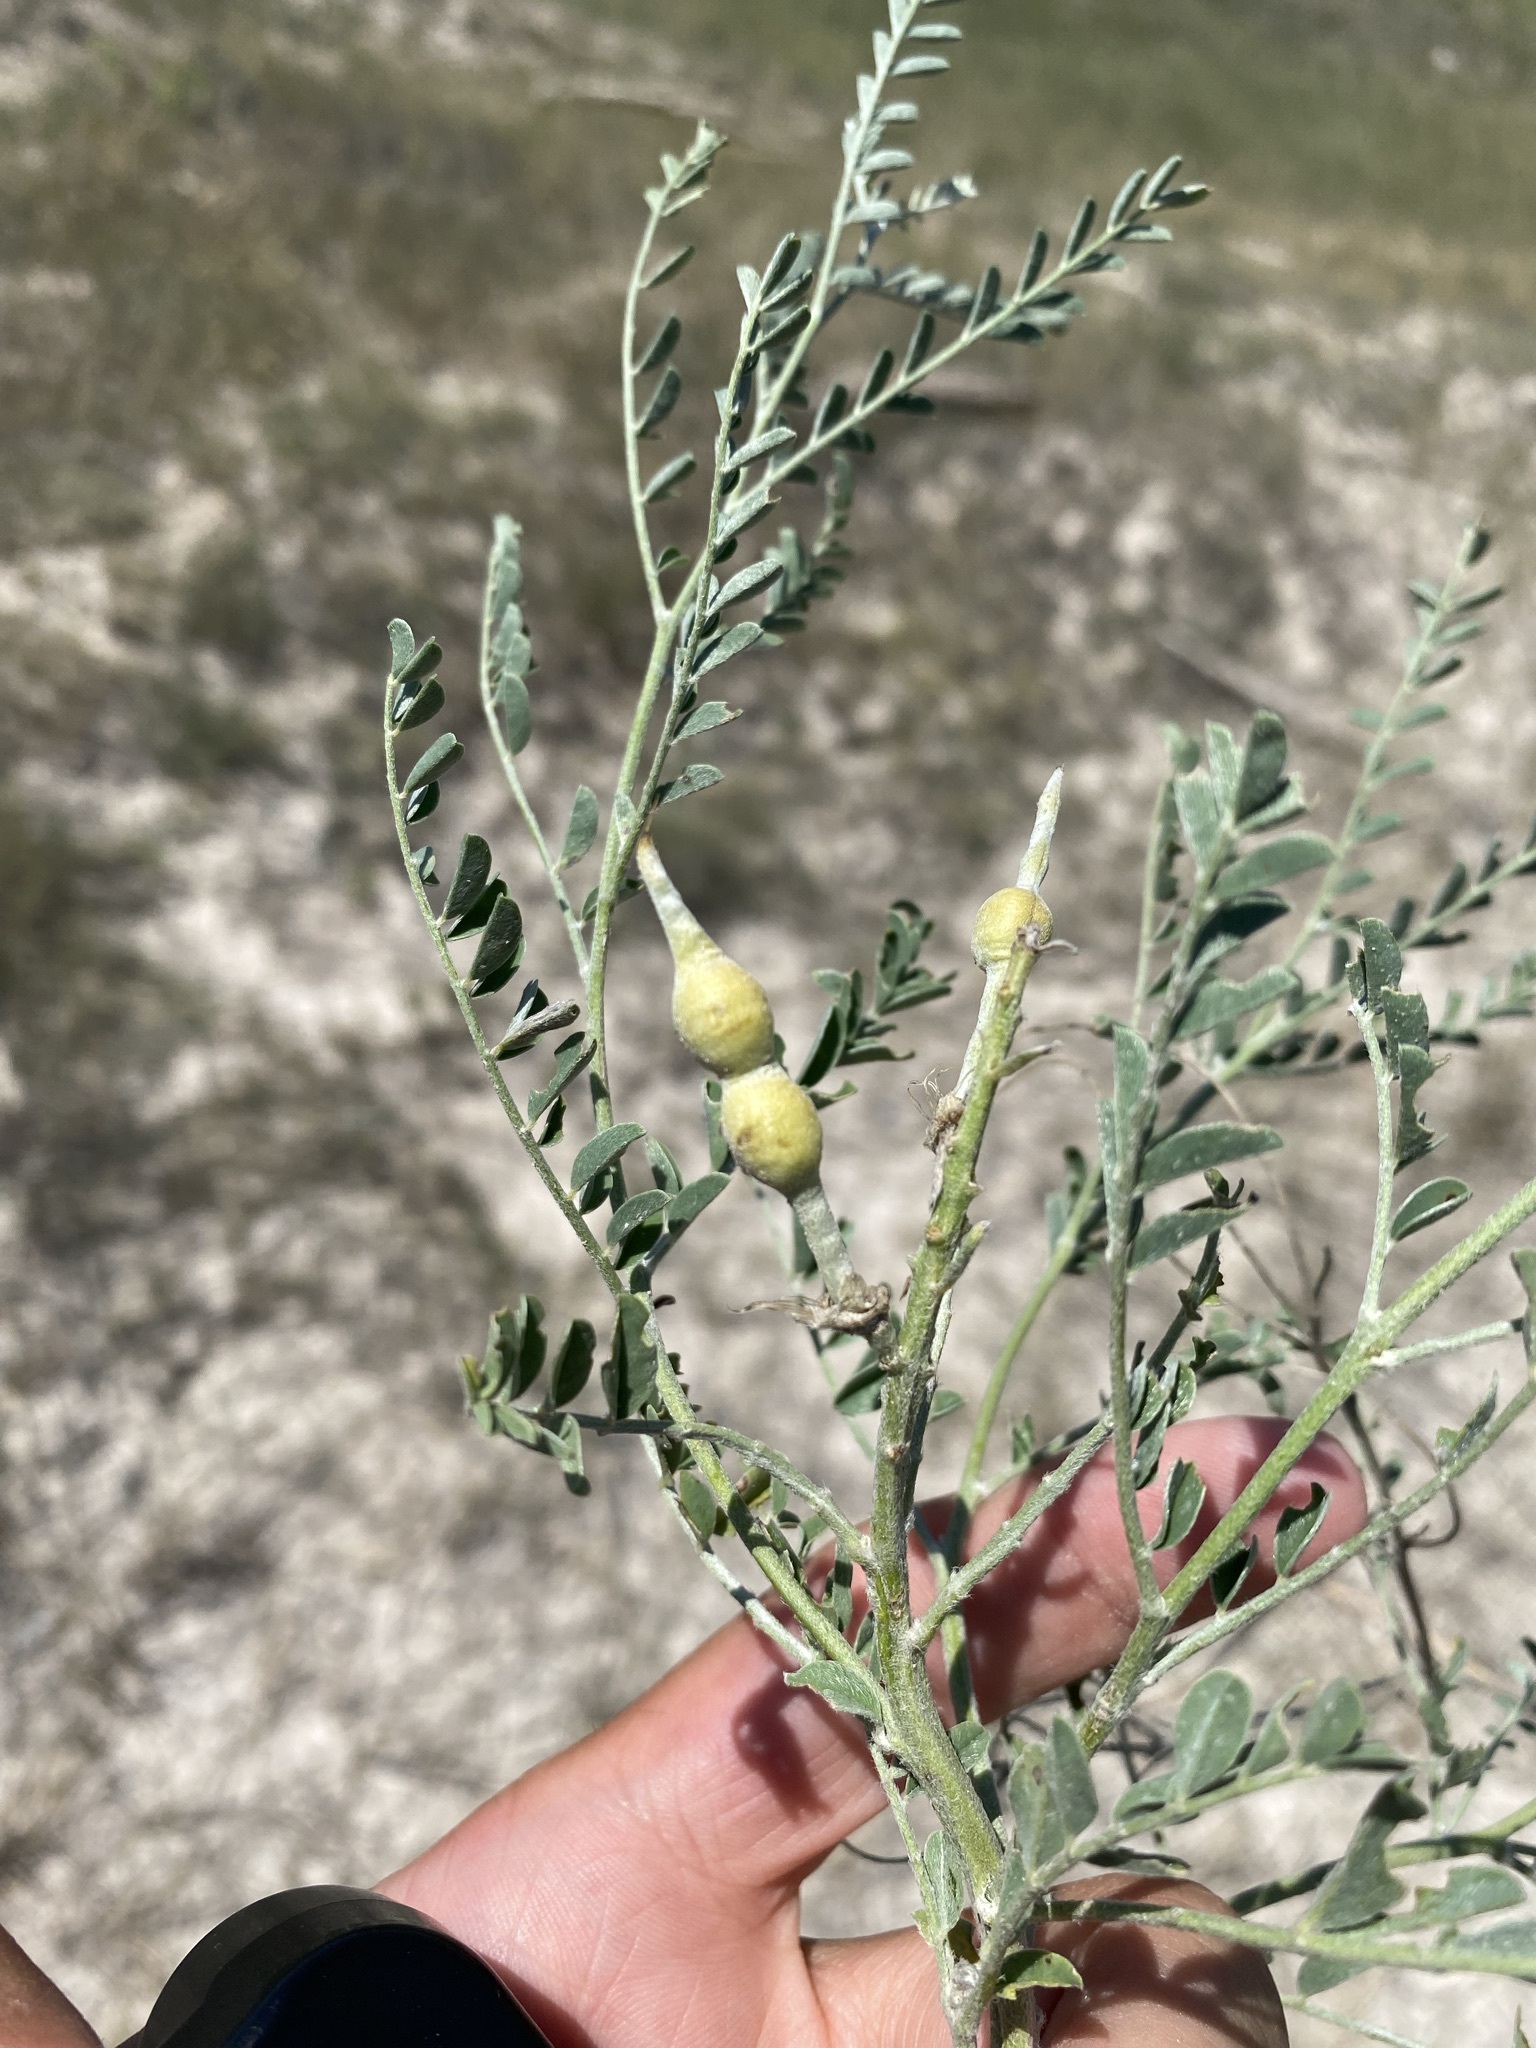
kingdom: Plantae
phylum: Tracheophyta
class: Magnoliopsida
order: Fabales
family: Fabaceae
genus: Sophora
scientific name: Sophora nuttalliana
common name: Silky sophora
